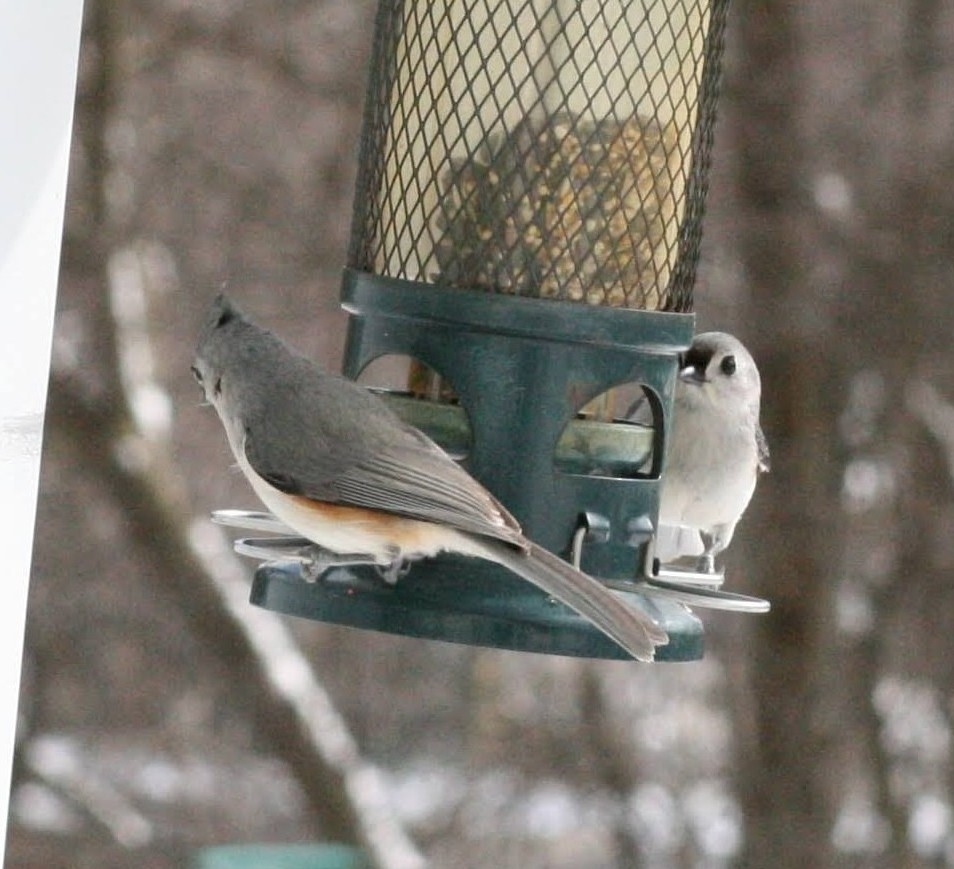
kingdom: Animalia
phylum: Chordata
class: Aves
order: Passeriformes
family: Paridae
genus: Baeolophus
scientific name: Baeolophus bicolor
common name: Tufted titmouse
